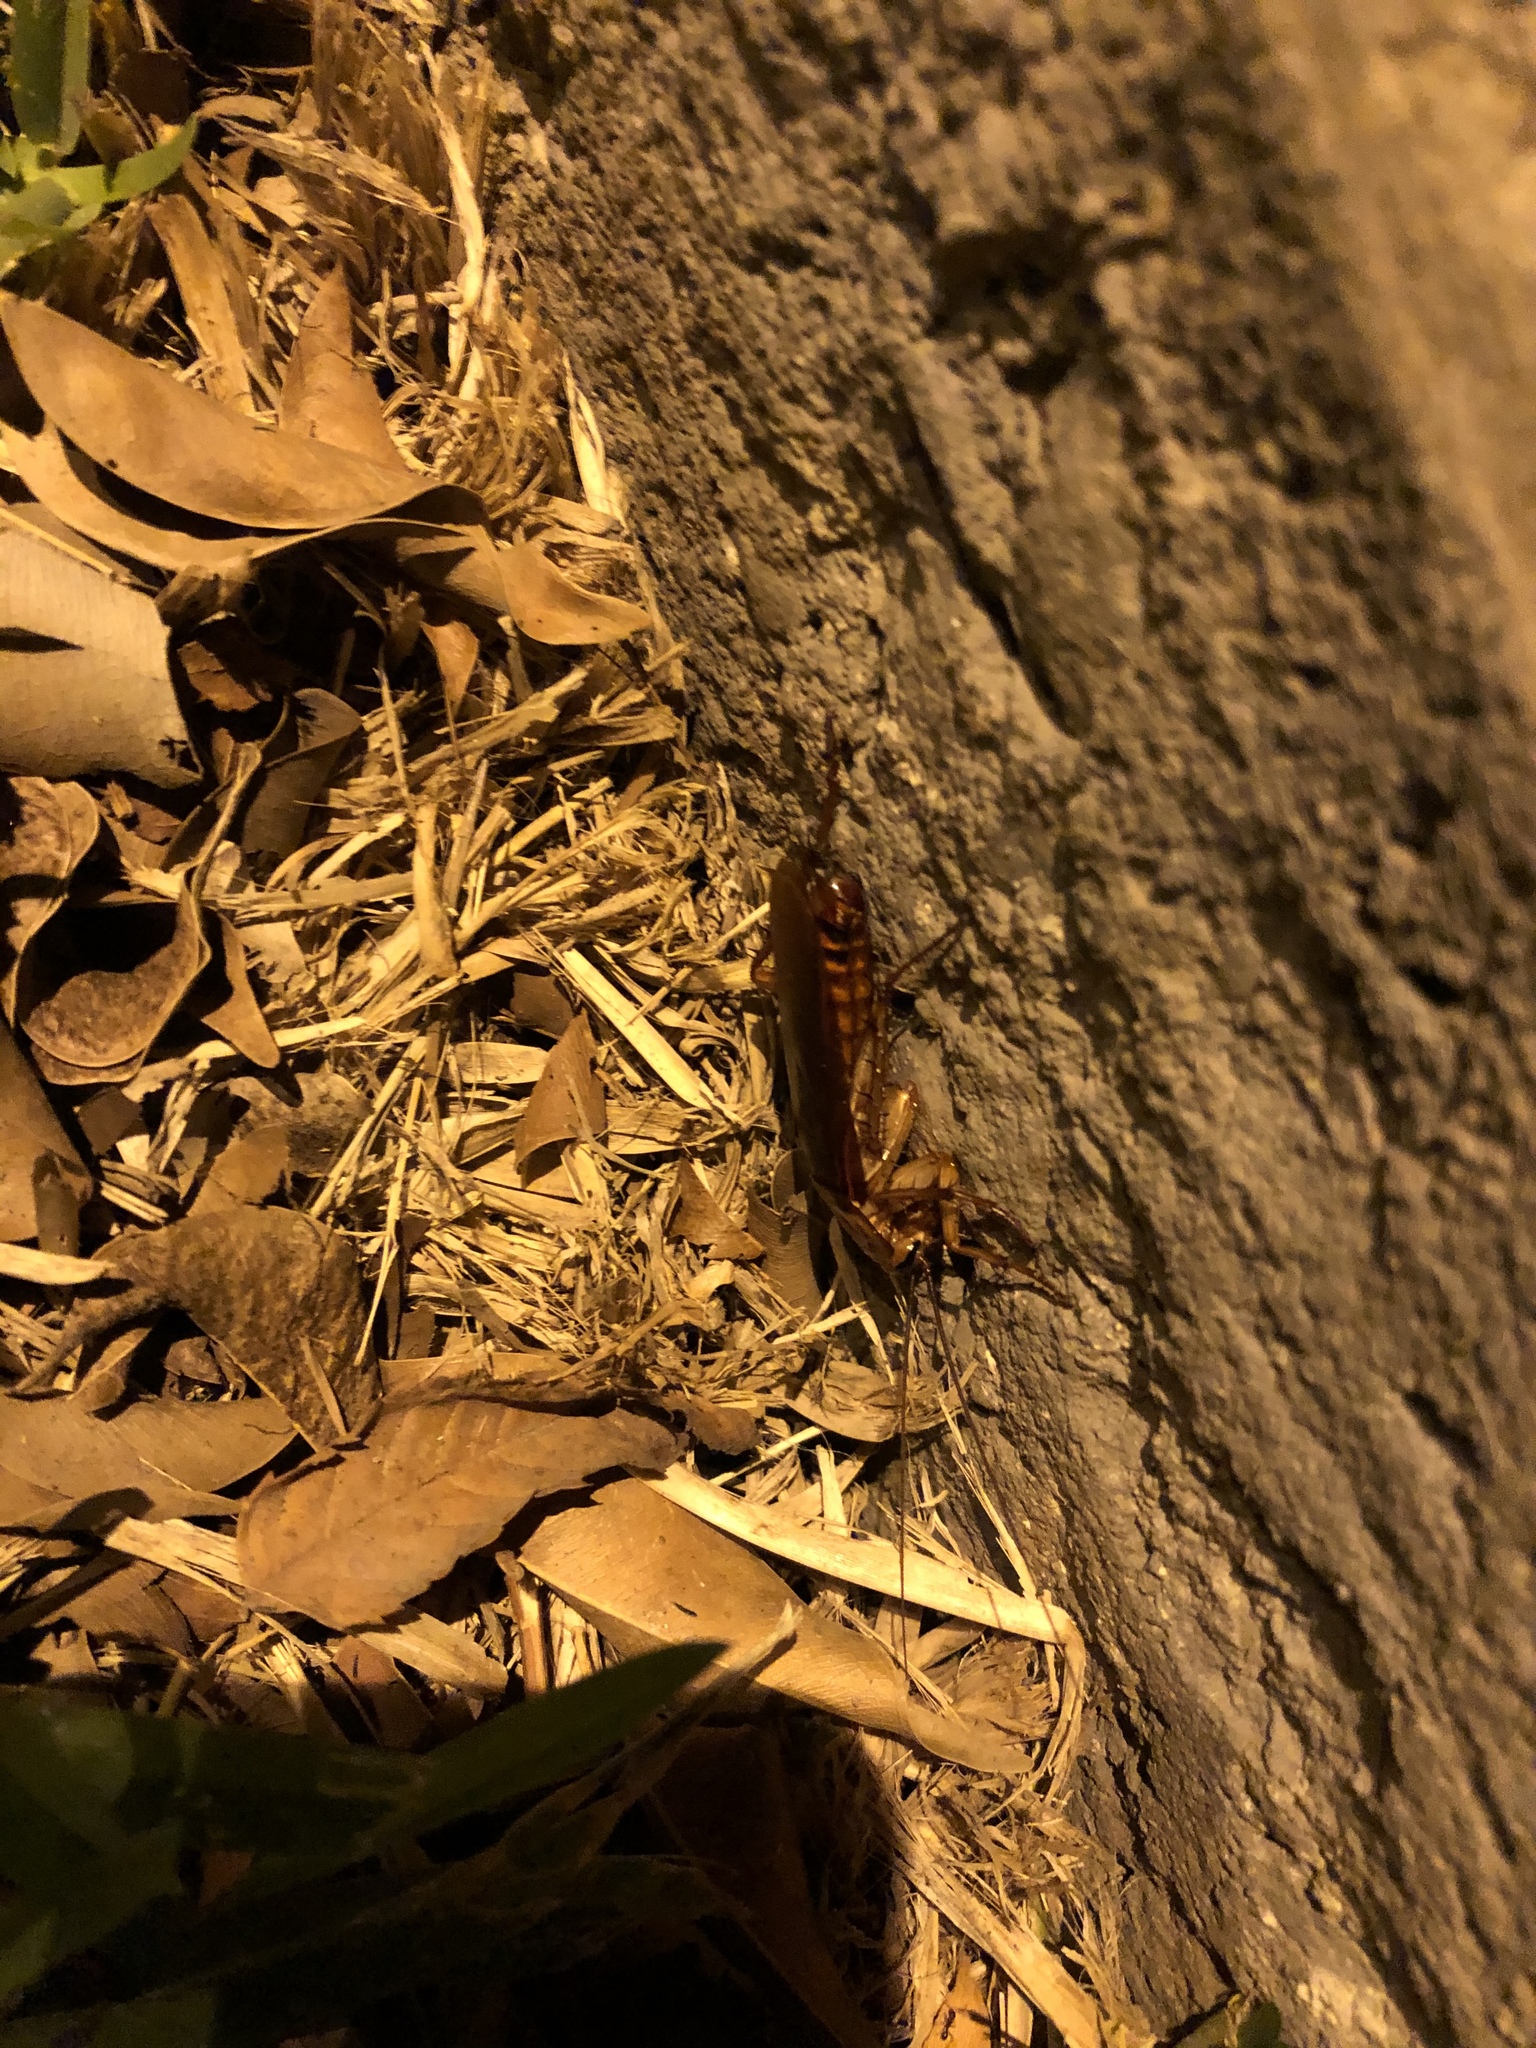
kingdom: Animalia
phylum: Arthropoda
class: Insecta
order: Blattodea
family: Blattidae
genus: Periplaneta
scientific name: Periplaneta americana
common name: American cockroach
